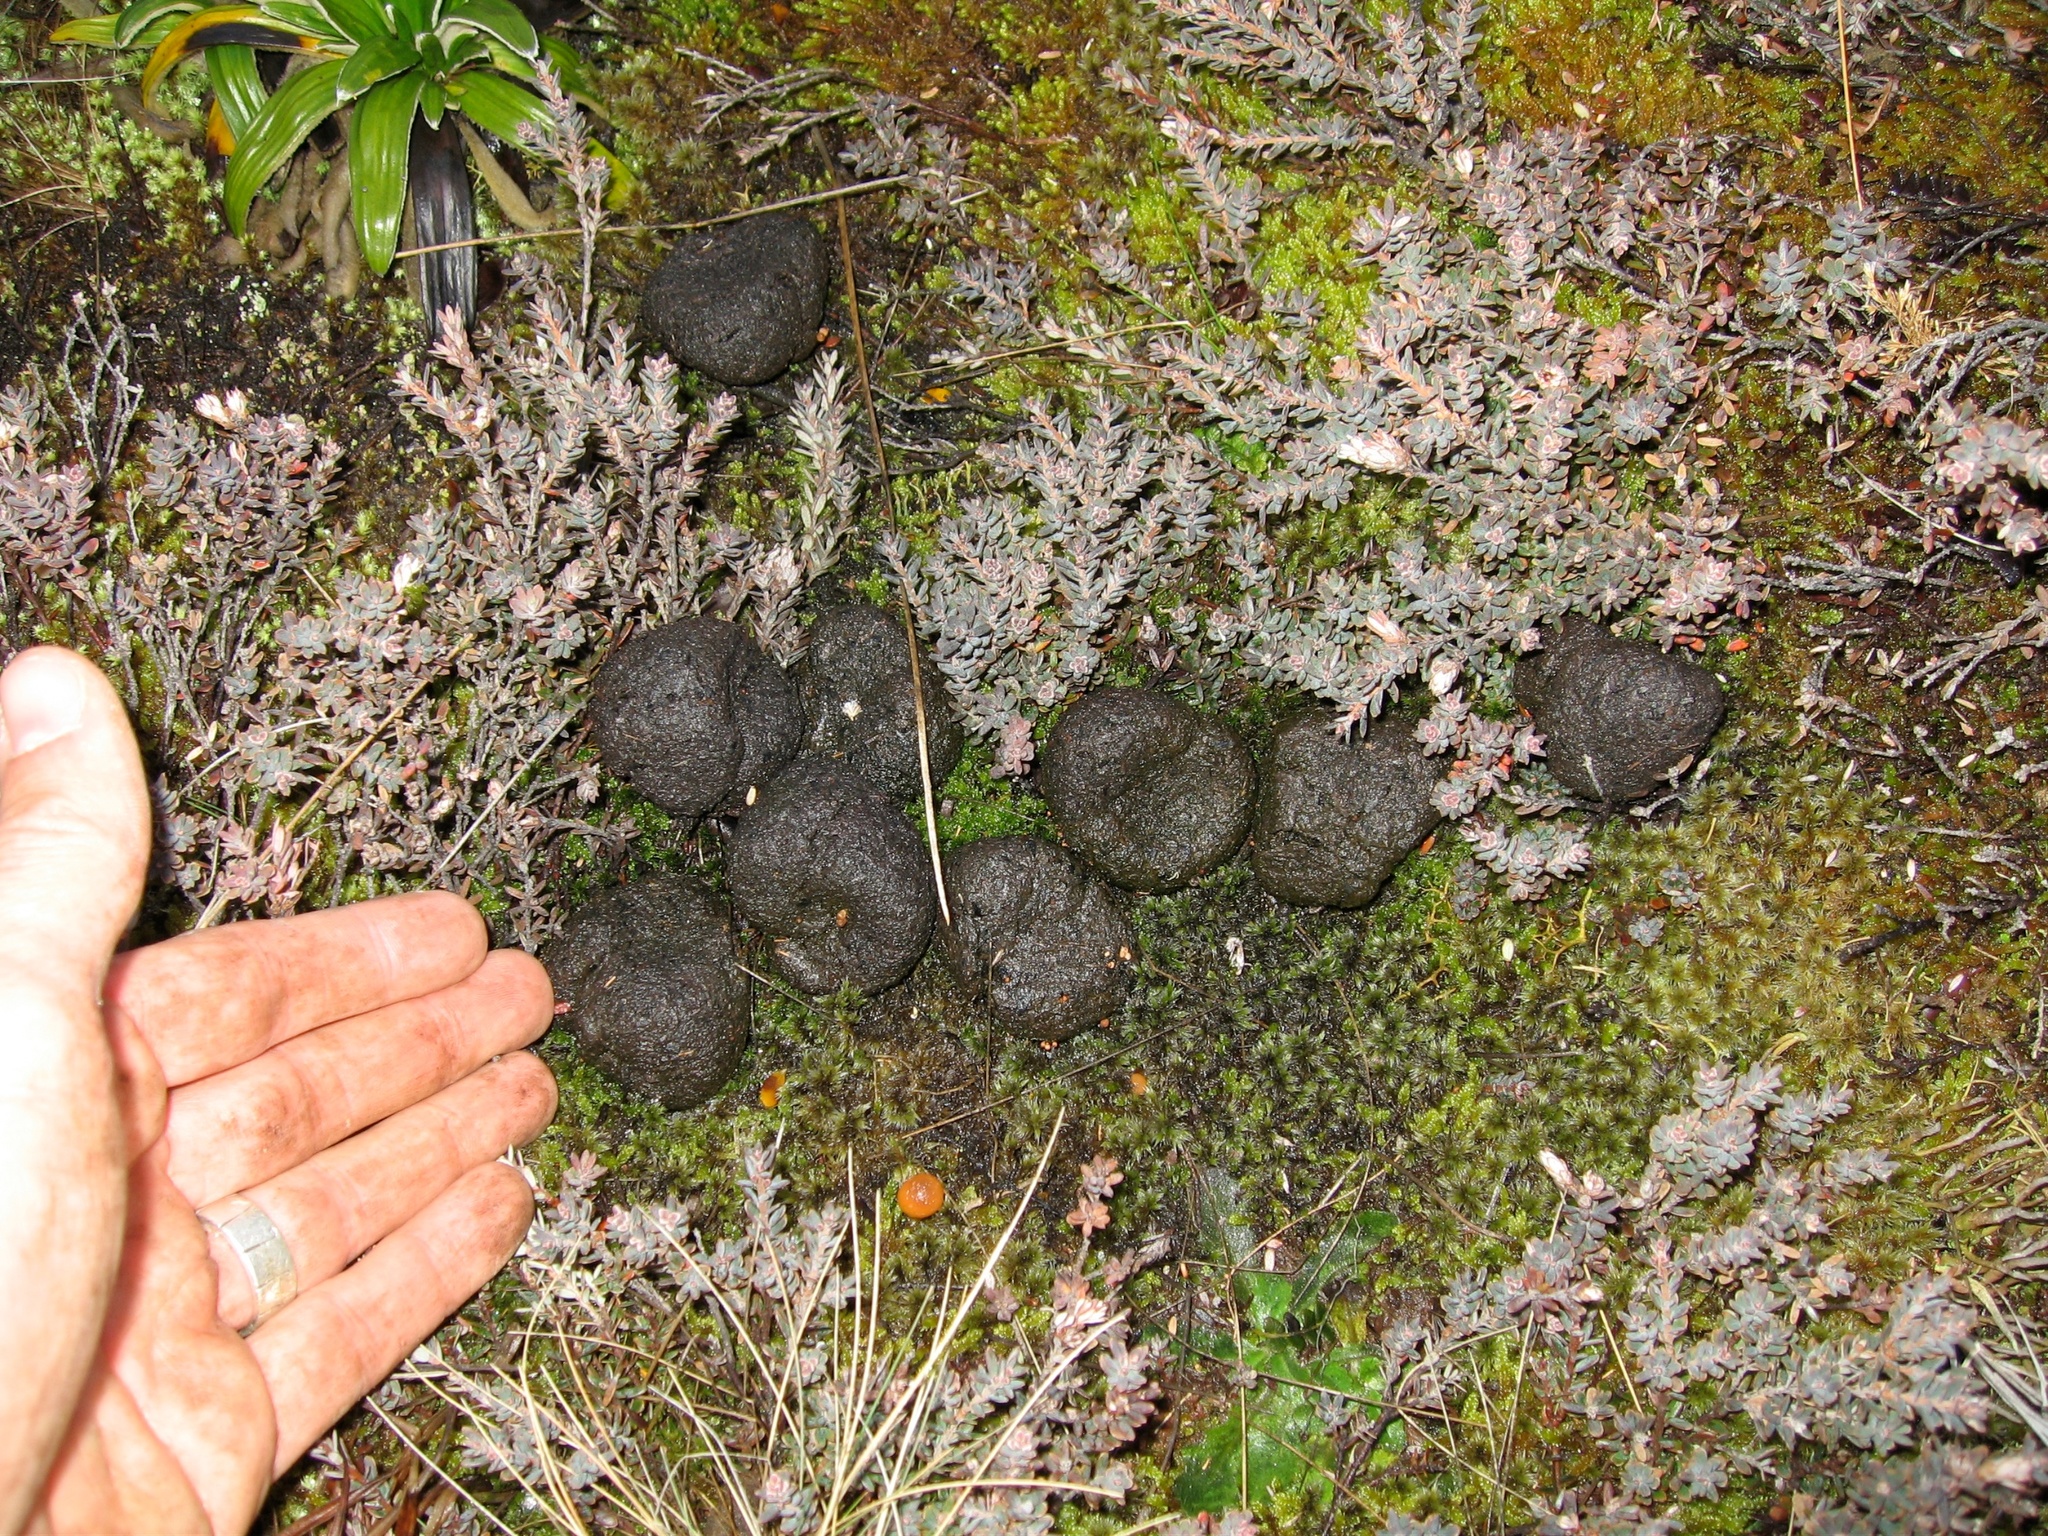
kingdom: Animalia
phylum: Chordata
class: Mammalia
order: Artiodactyla
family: Suidae
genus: Sus
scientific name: Sus scrofa
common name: Wild boar
